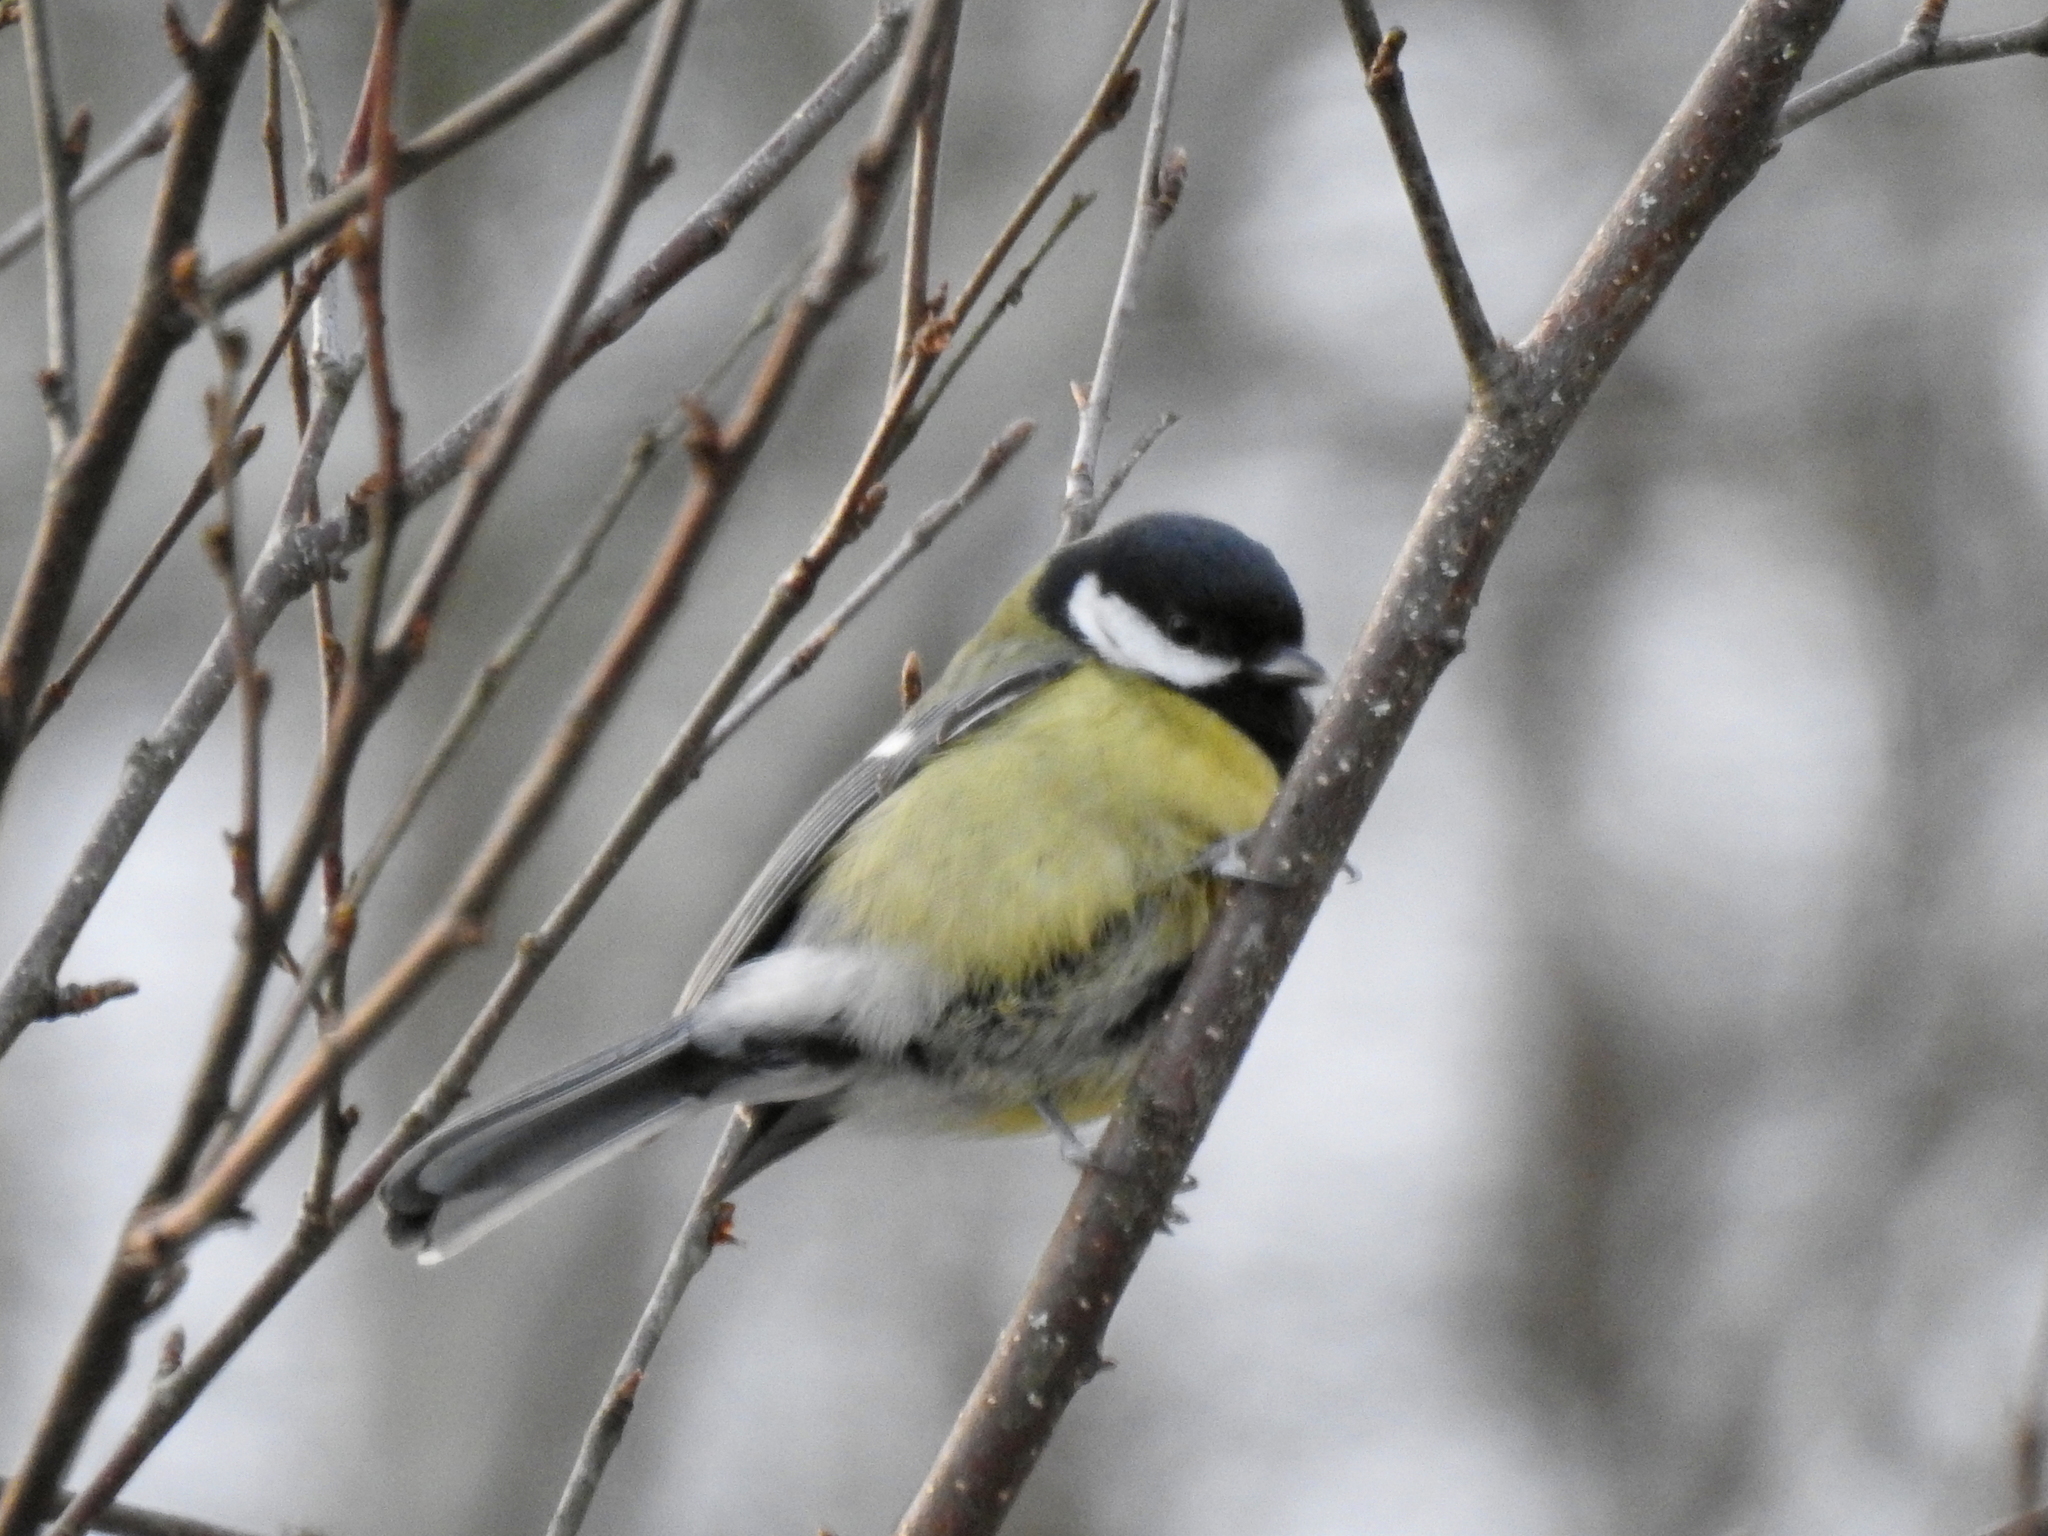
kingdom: Animalia
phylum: Chordata
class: Aves
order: Passeriformes
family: Paridae
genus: Parus
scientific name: Parus major
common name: Great tit
